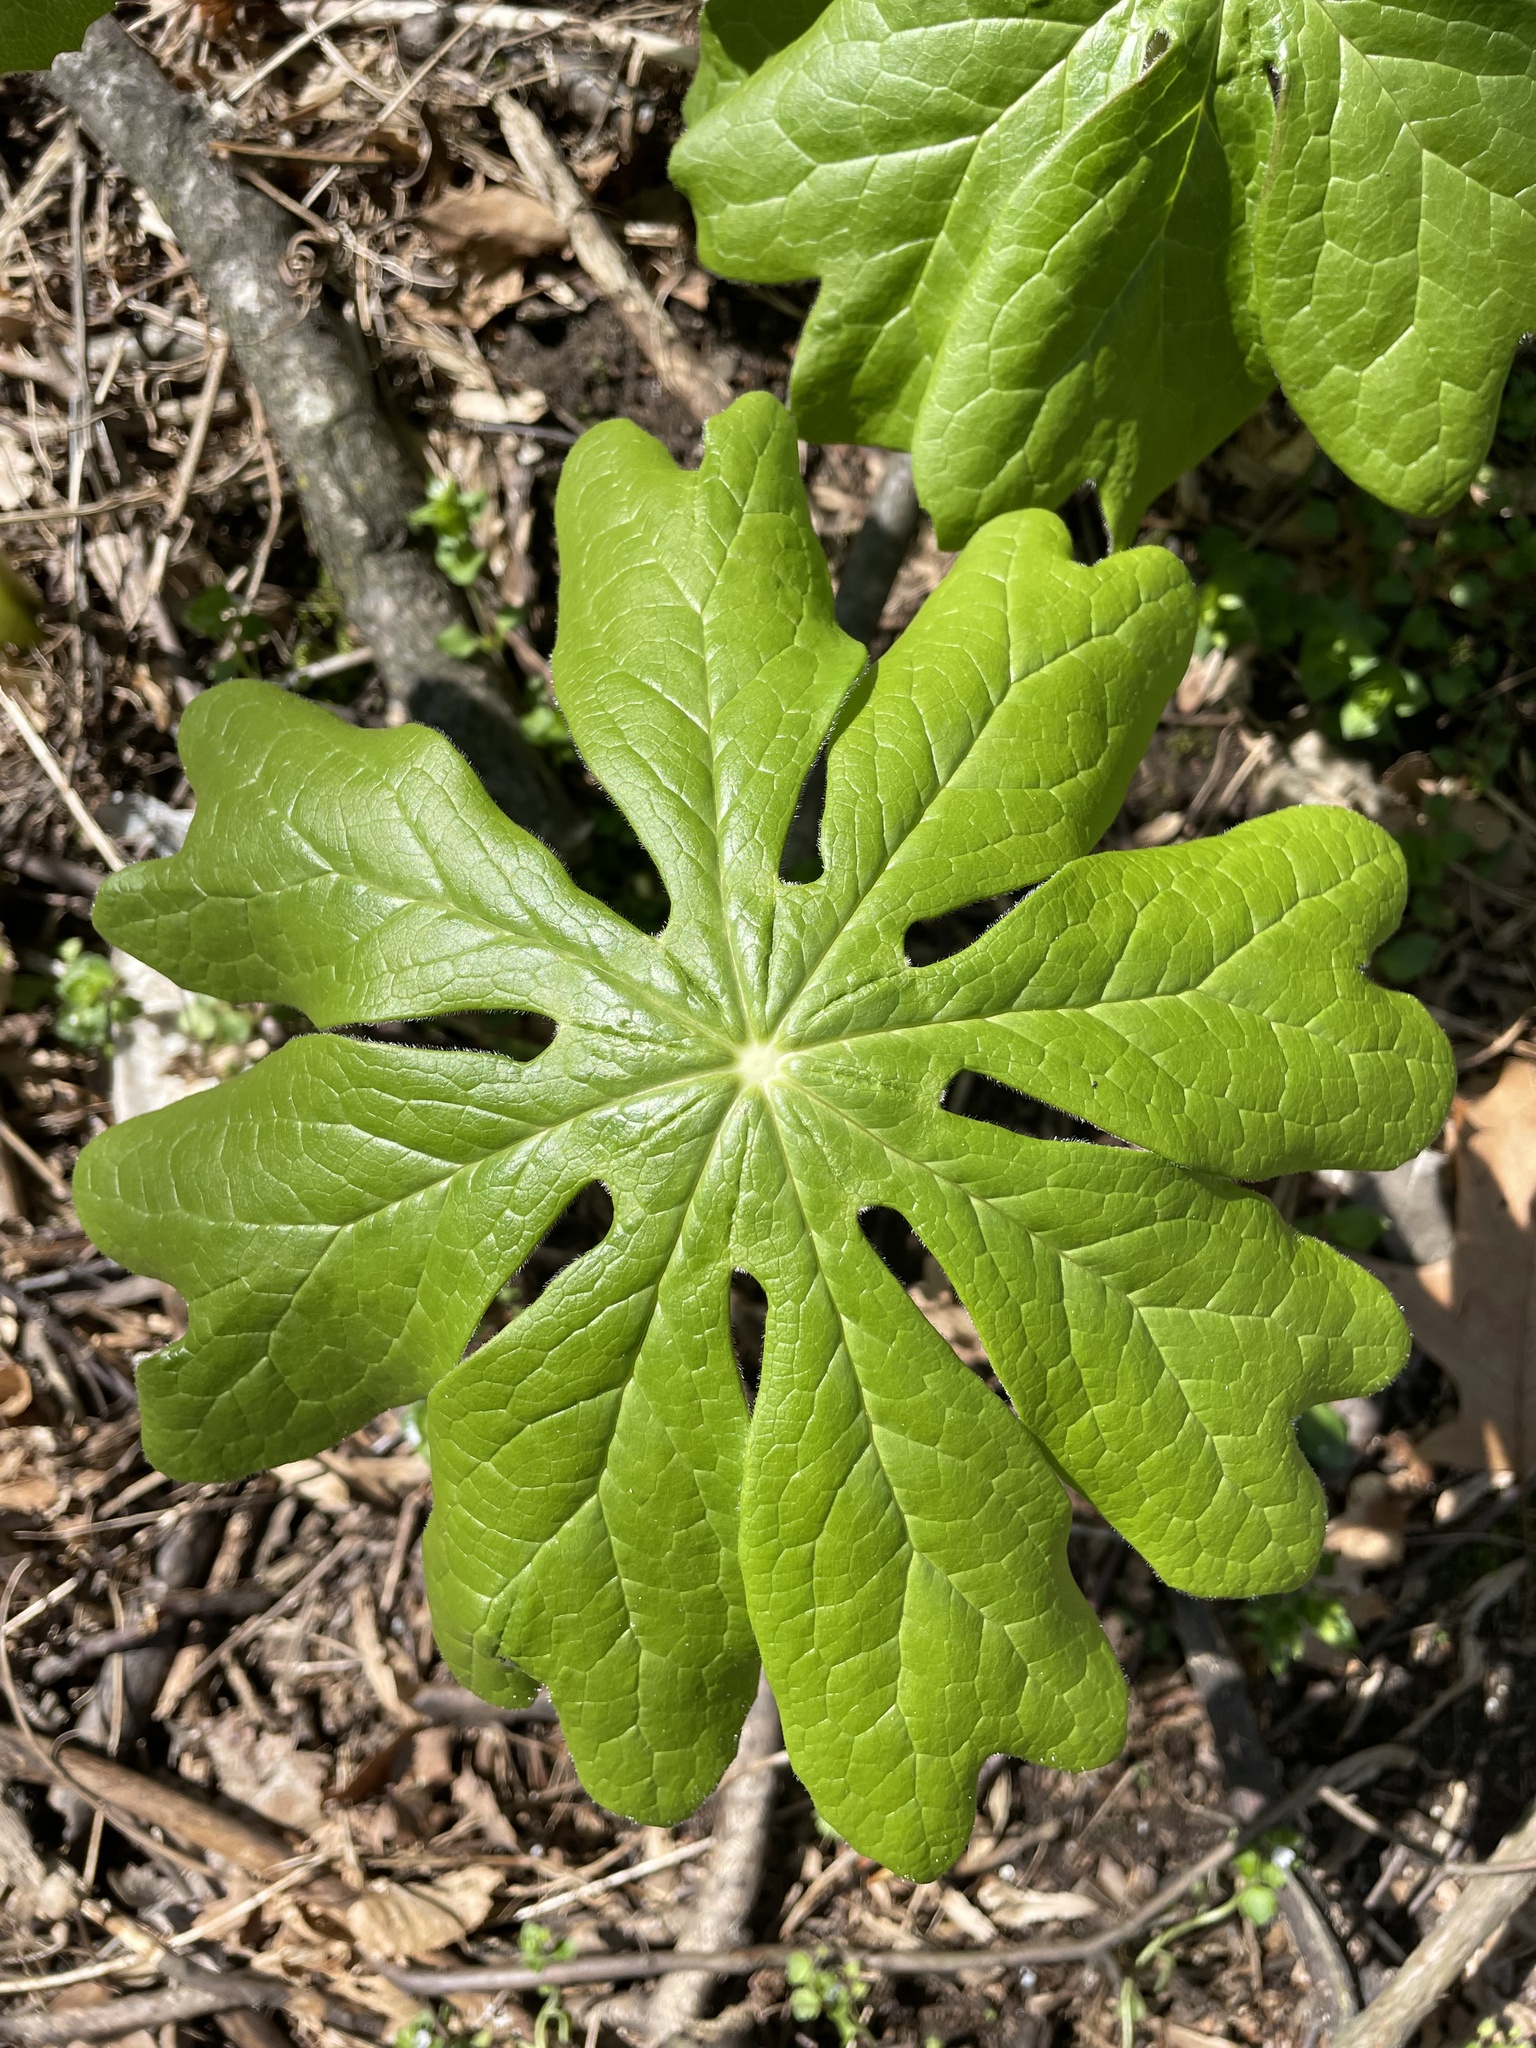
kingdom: Plantae
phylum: Tracheophyta
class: Magnoliopsida
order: Ranunculales
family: Berberidaceae
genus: Podophyllum
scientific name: Podophyllum peltatum
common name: Wild mandrake
